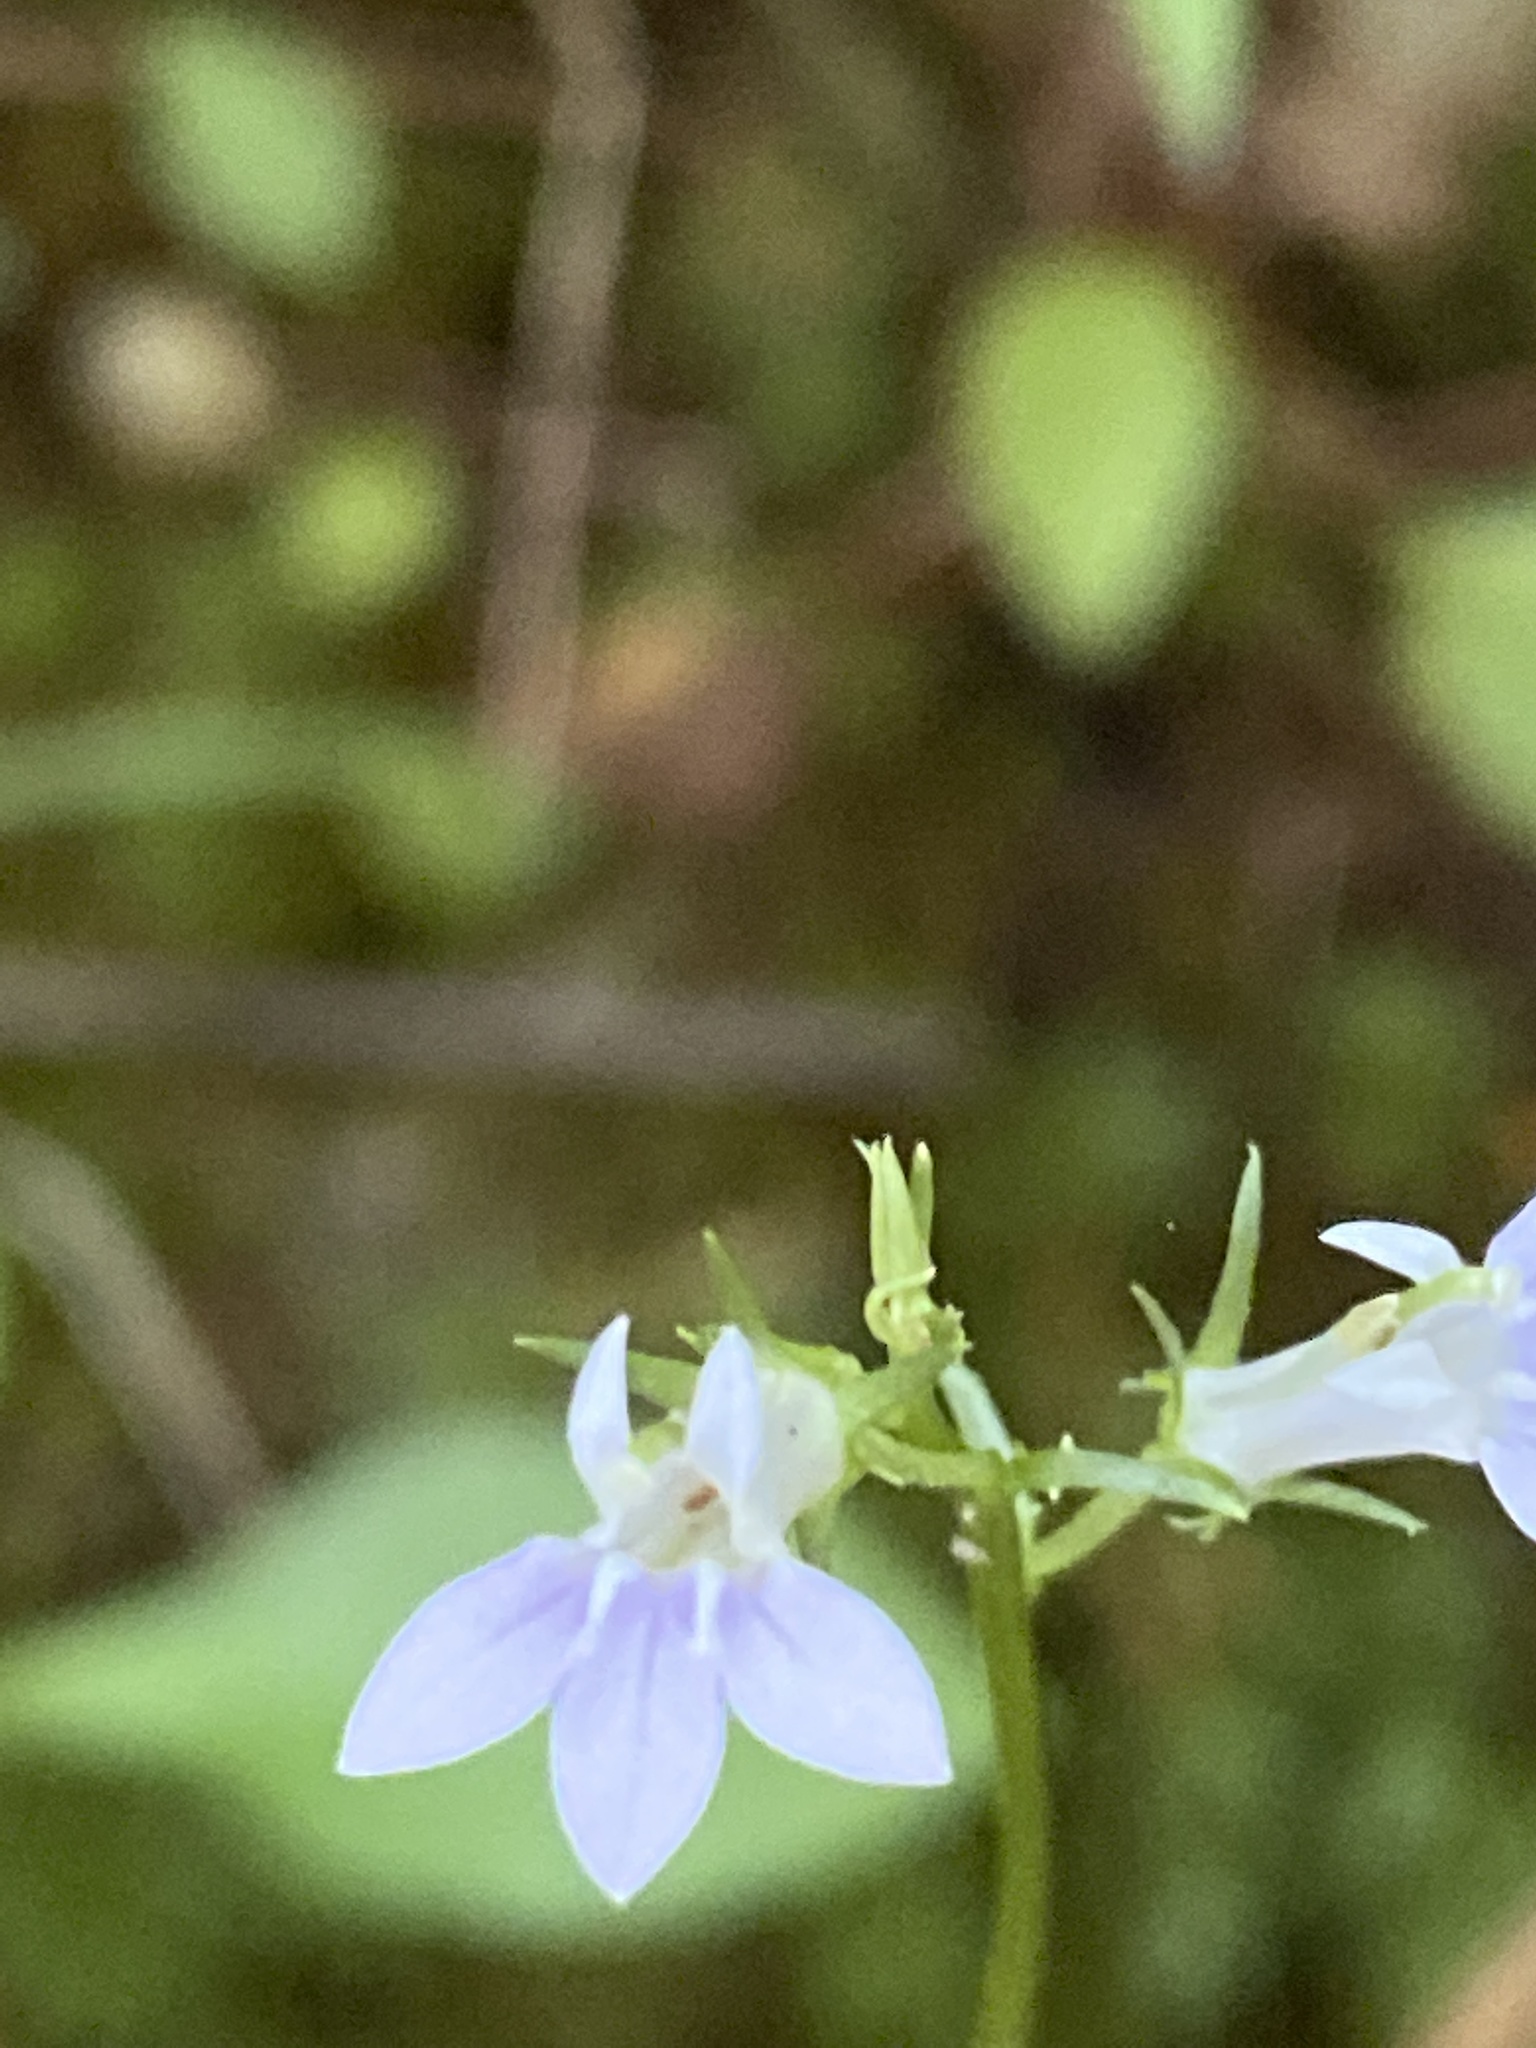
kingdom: Plantae
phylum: Tracheophyta
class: Magnoliopsida
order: Asterales
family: Campanulaceae
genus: Lobelia
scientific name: Lobelia spicata
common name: Pale-spike lobelia
